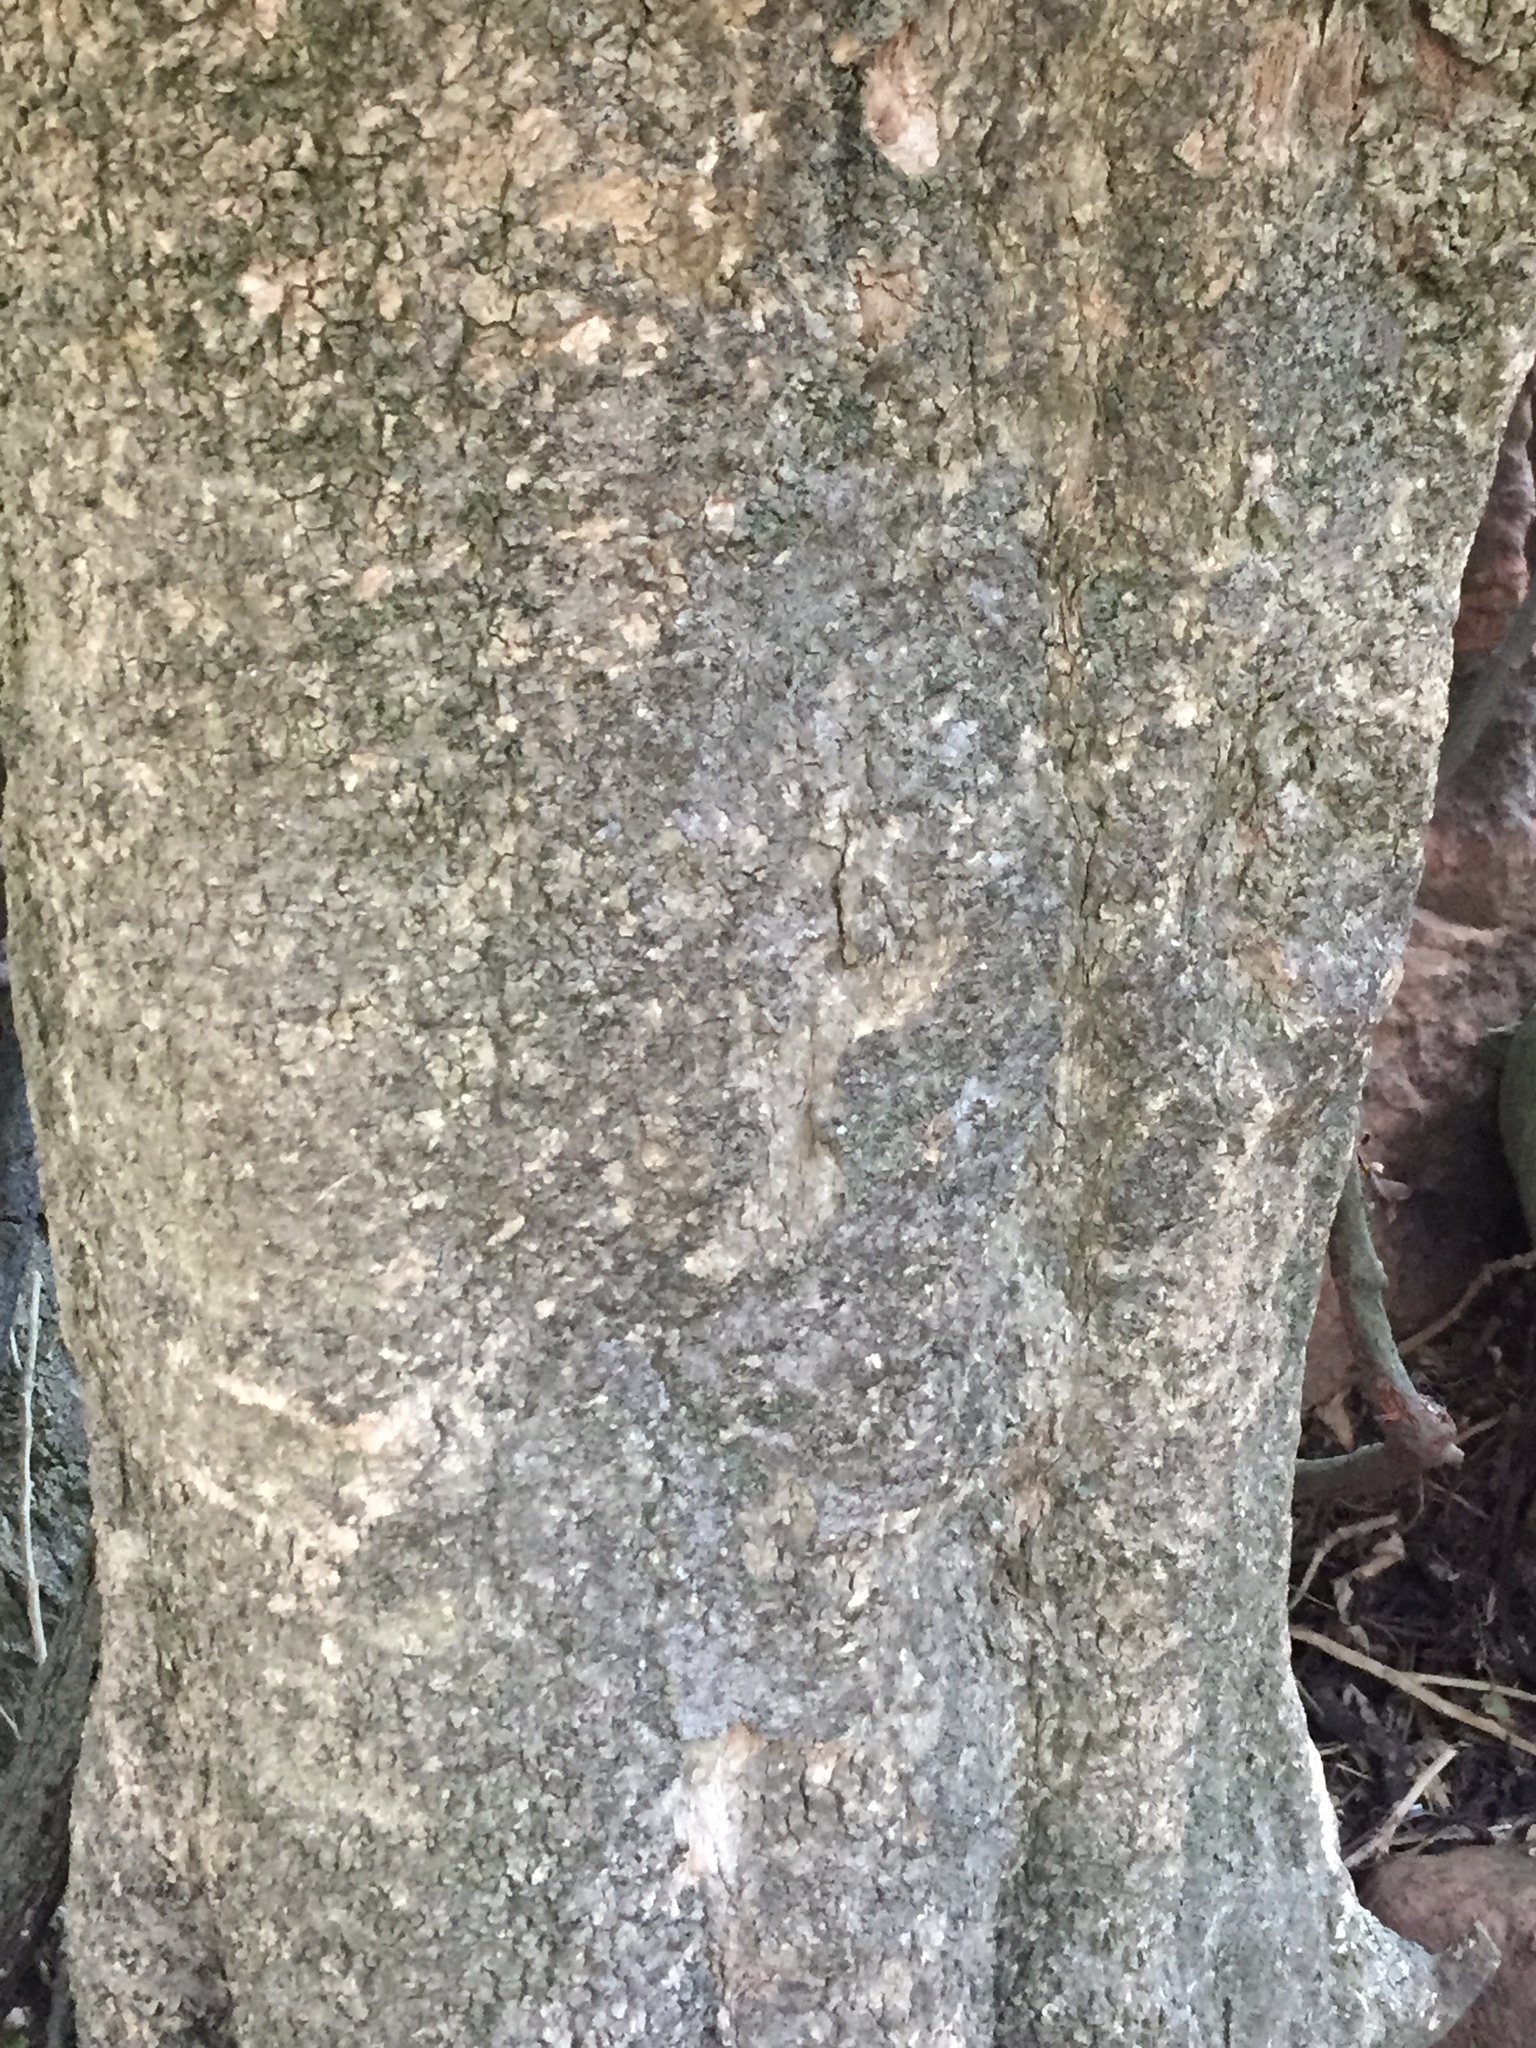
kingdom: Plantae
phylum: Tracheophyta
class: Magnoliopsida
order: Malpighiales
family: Violaceae
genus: Melicytus
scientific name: Melicytus ramiflorus
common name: Mahoe
